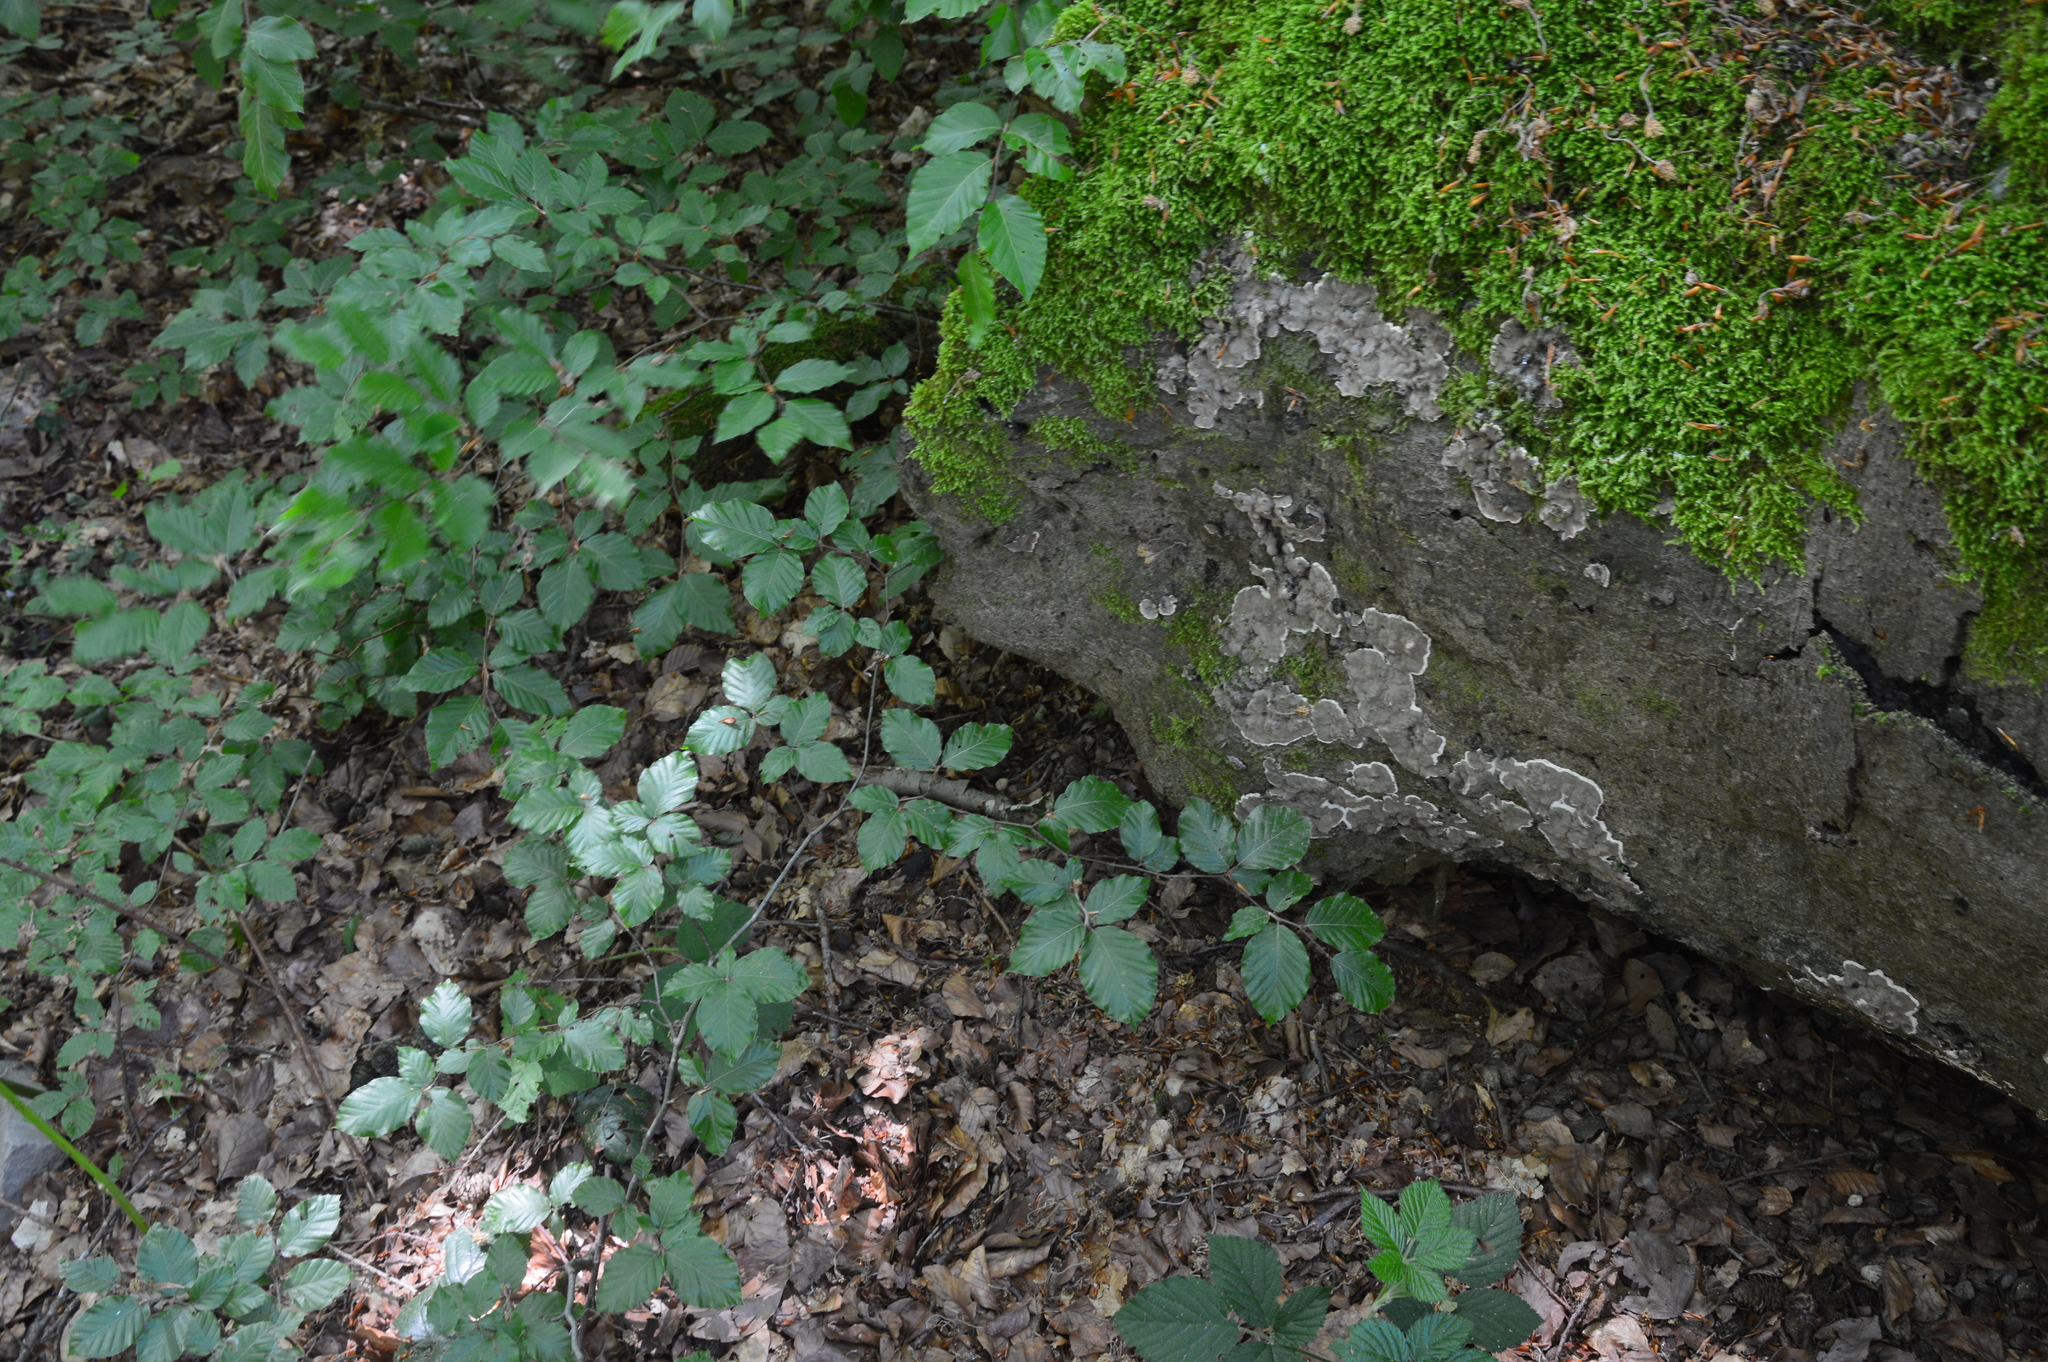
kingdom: Plantae
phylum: Tracheophyta
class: Magnoliopsida
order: Fagales
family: Fagaceae
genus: Fagus
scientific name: Fagus sylvatica
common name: Beech
